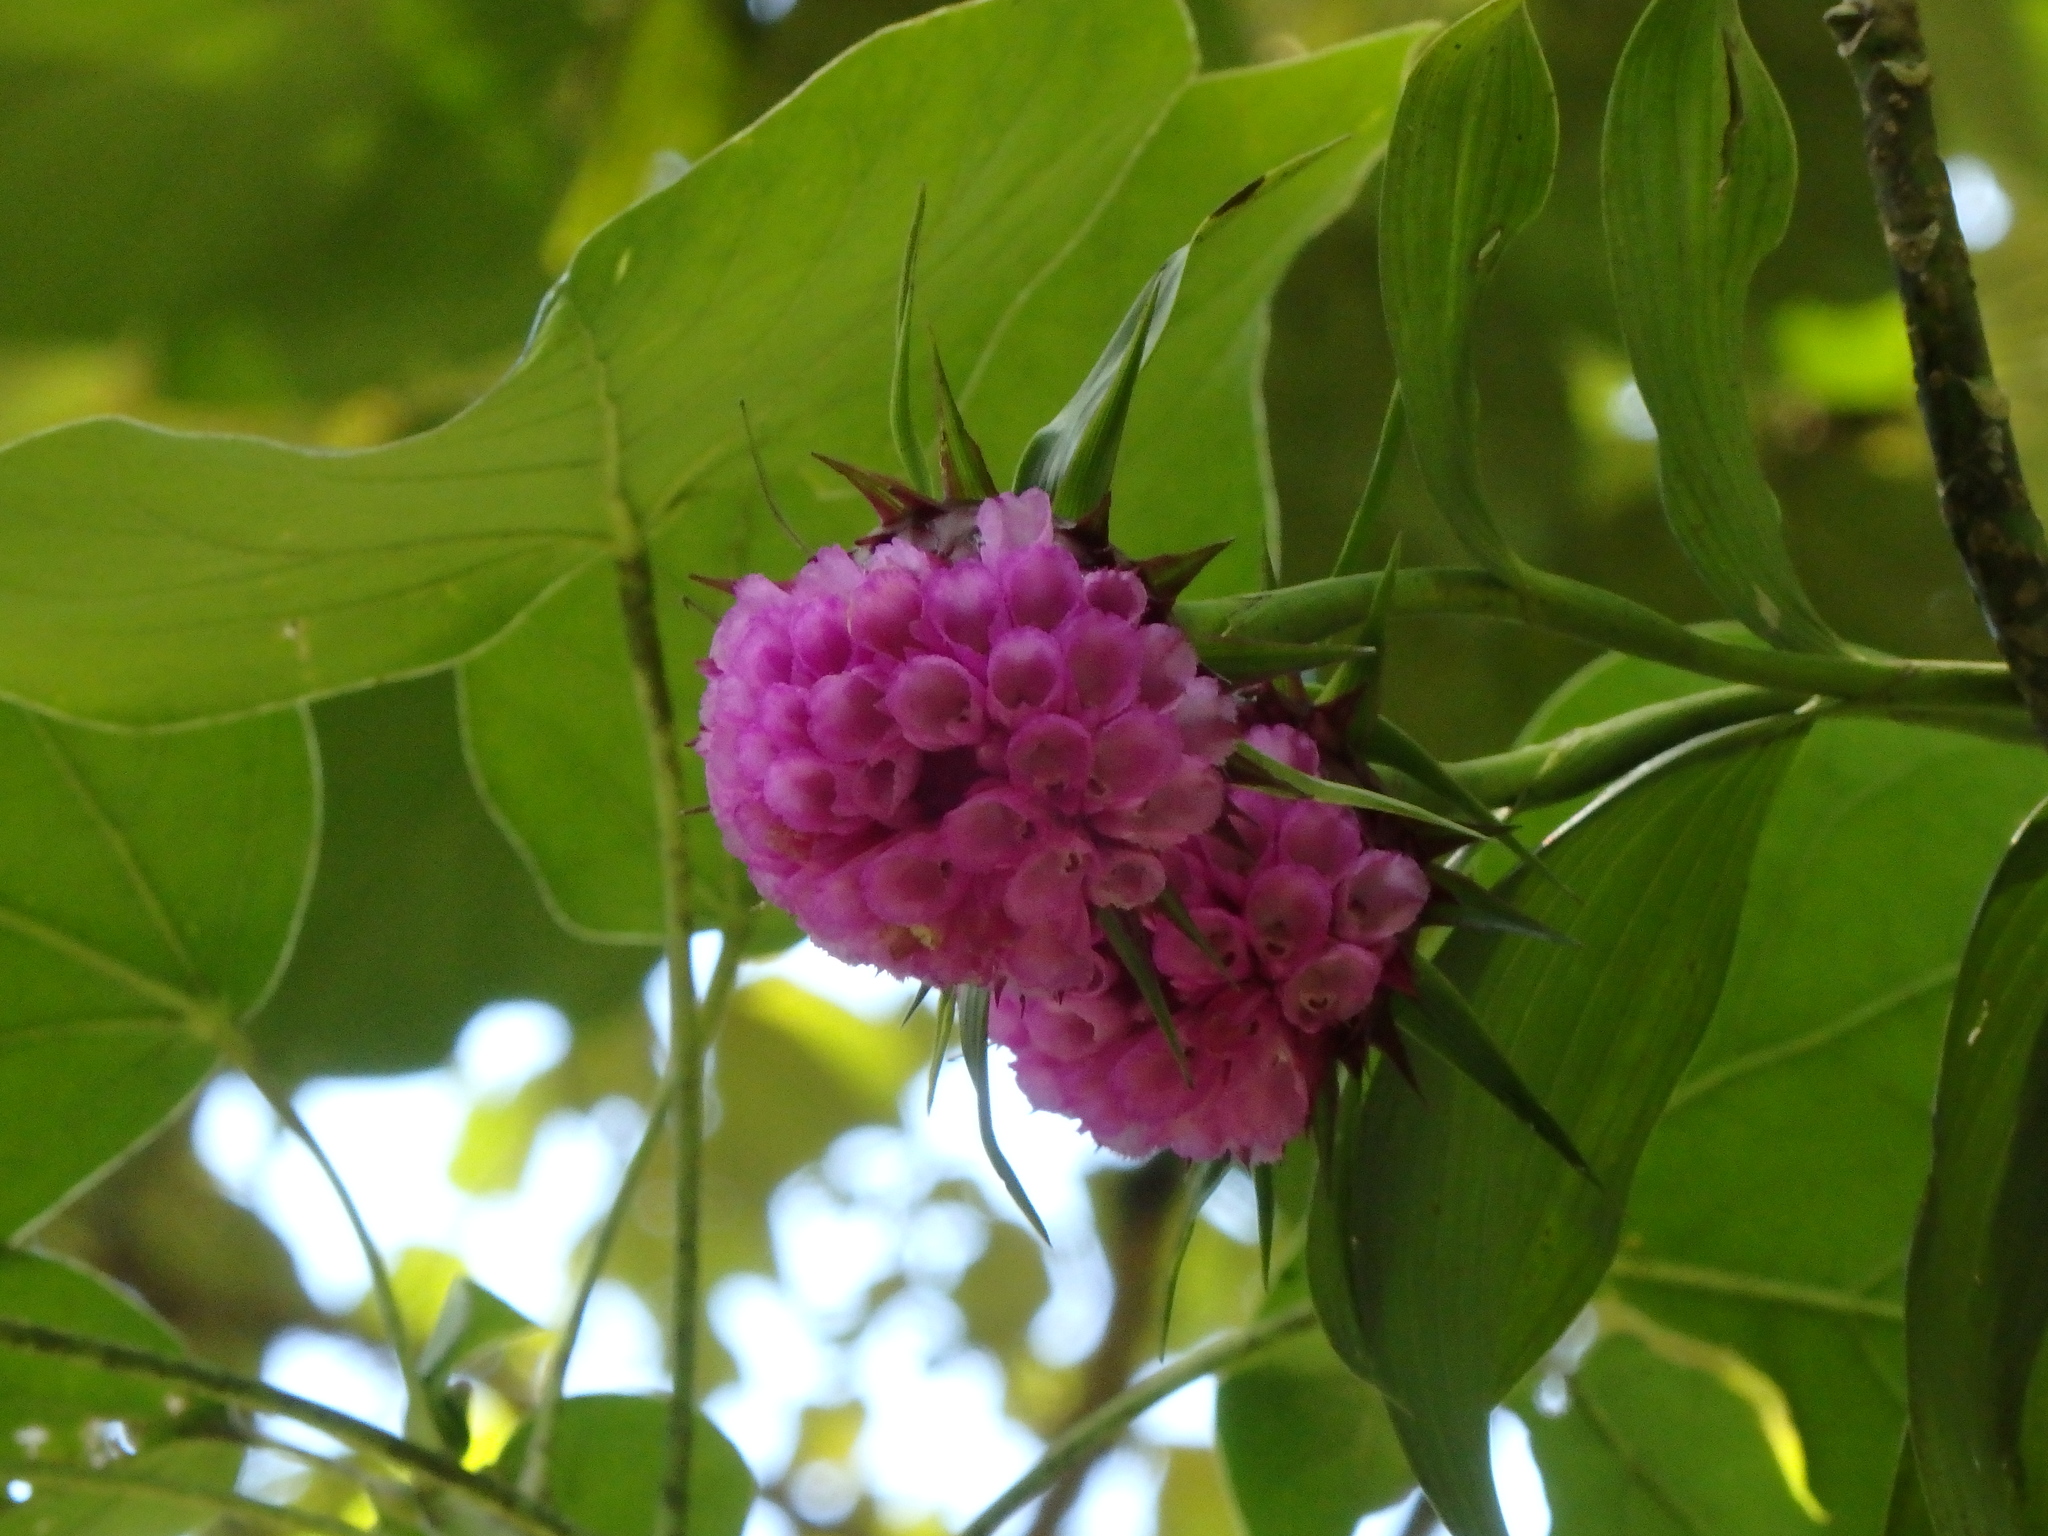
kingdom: Plantae
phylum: Tracheophyta
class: Liliopsida
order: Asparagales
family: Orchidaceae
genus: Elleanthus
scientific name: Elleanthus capitatus
